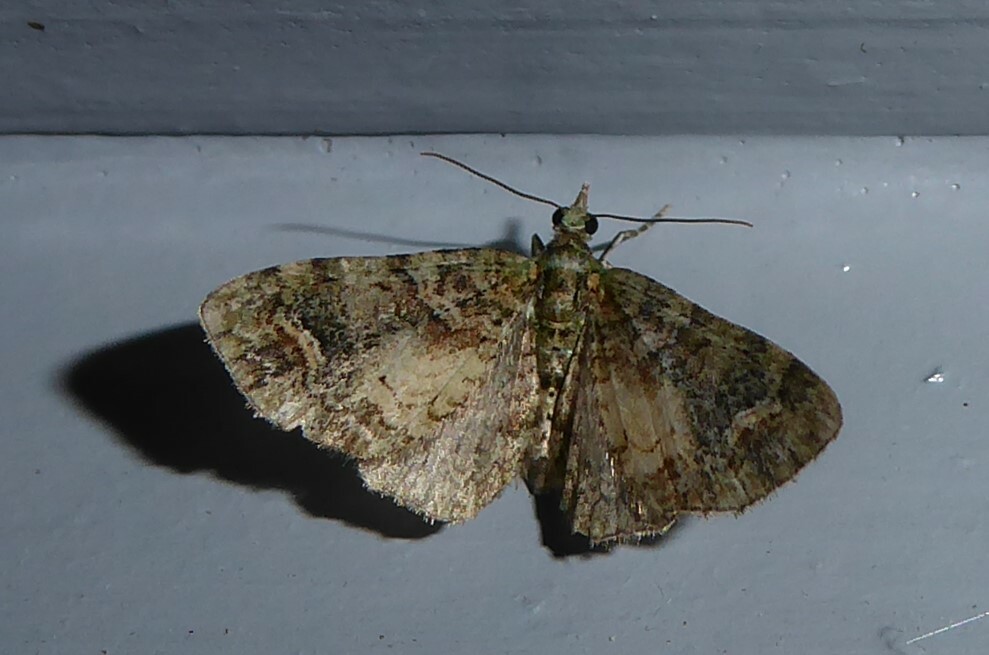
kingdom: Animalia
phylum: Arthropoda
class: Insecta
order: Lepidoptera
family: Geometridae
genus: Idaea
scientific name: Idaea mutanda
